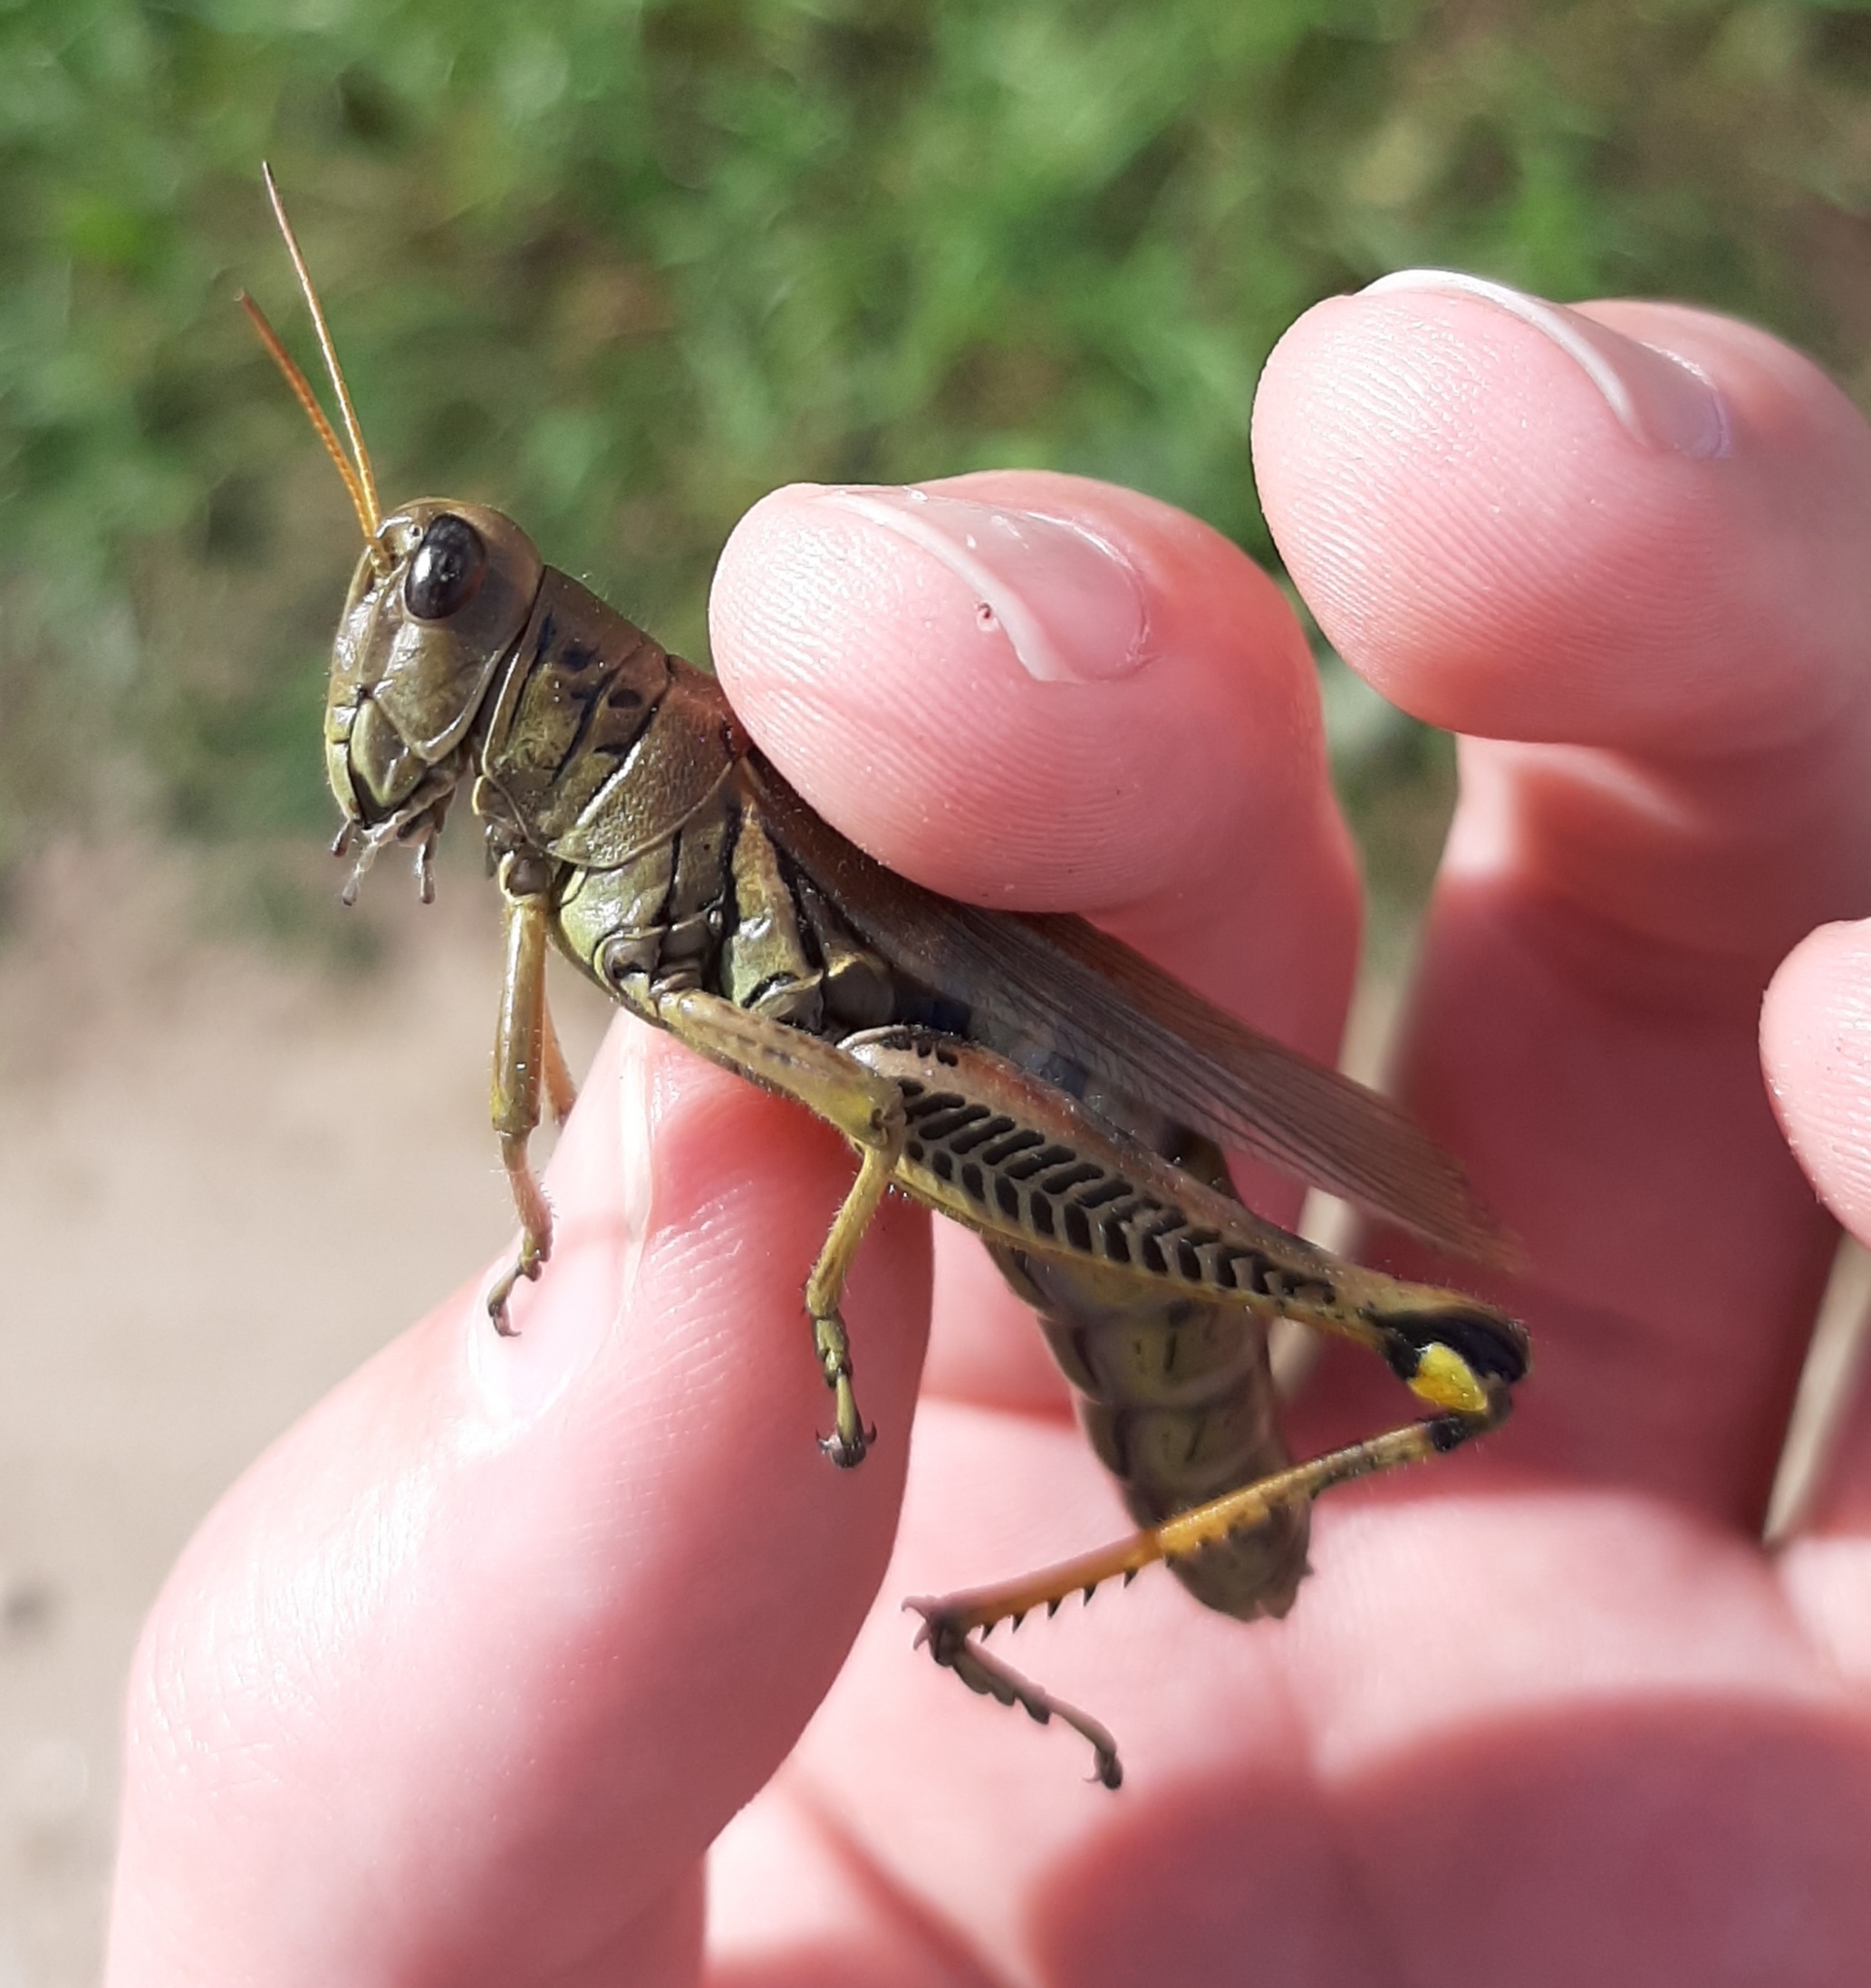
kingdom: Animalia
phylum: Arthropoda
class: Insecta
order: Orthoptera
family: Acrididae
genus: Melanoplus
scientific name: Melanoplus differentialis
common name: Differential grasshopper
